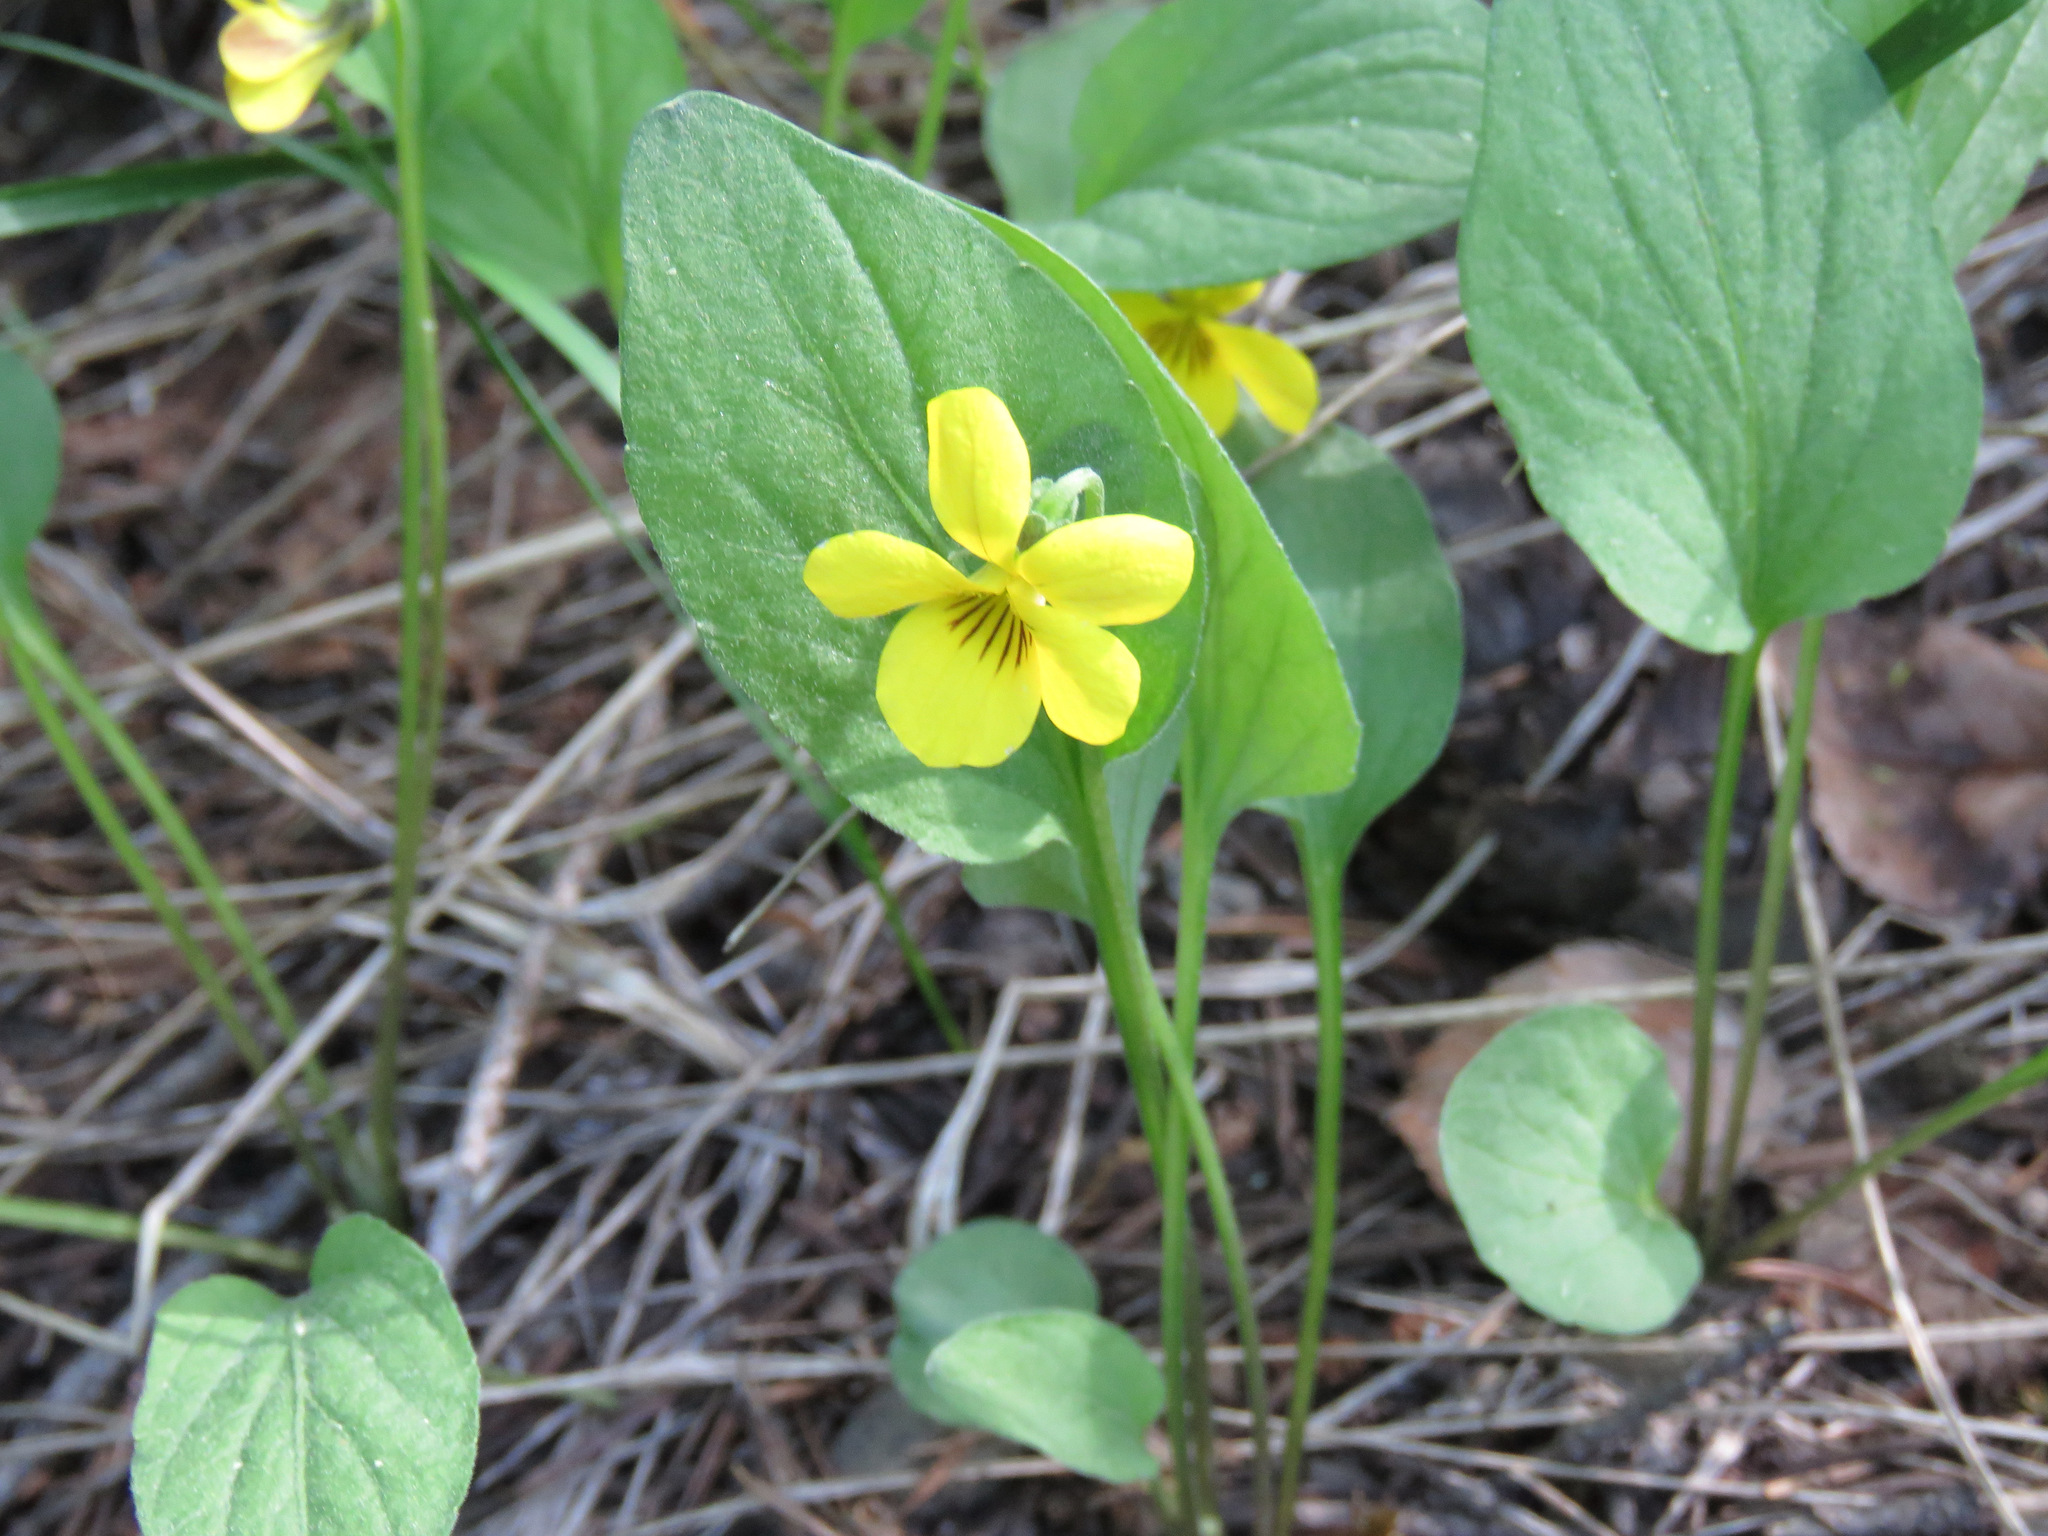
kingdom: Plantae
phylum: Tracheophyta
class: Magnoliopsida
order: Malpighiales
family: Violaceae
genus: Viola
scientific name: Viola vallicola
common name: Valley violet
